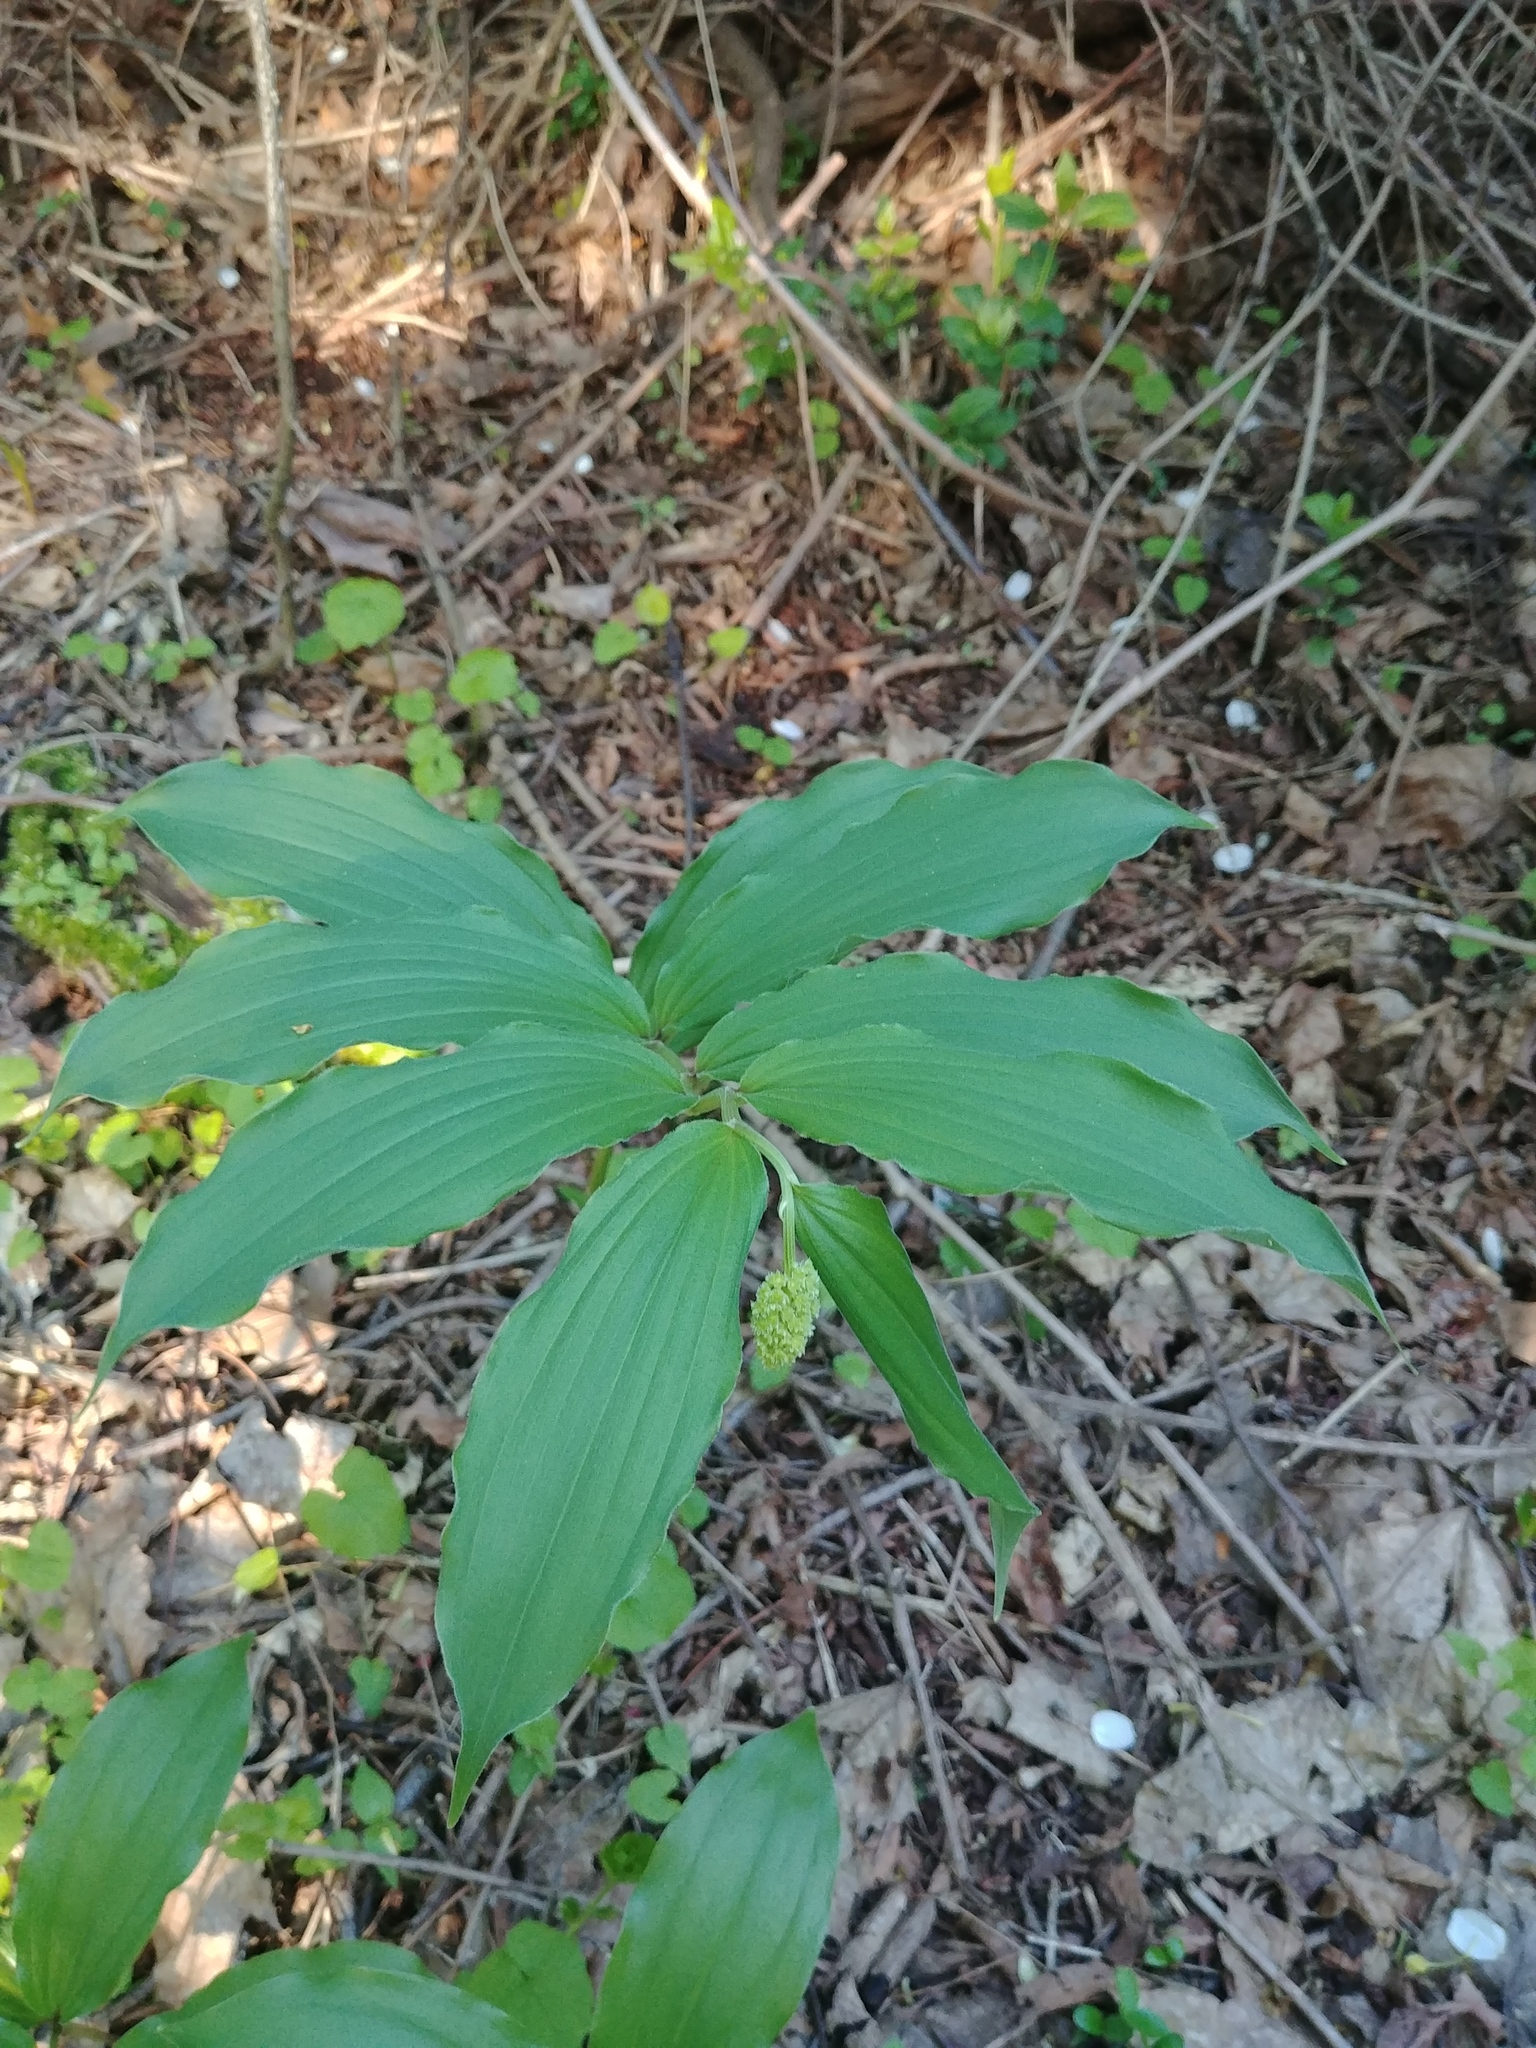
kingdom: Plantae
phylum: Tracheophyta
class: Liliopsida
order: Asparagales
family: Asparagaceae
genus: Maianthemum
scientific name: Maianthemum racemosum
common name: False spikenard
